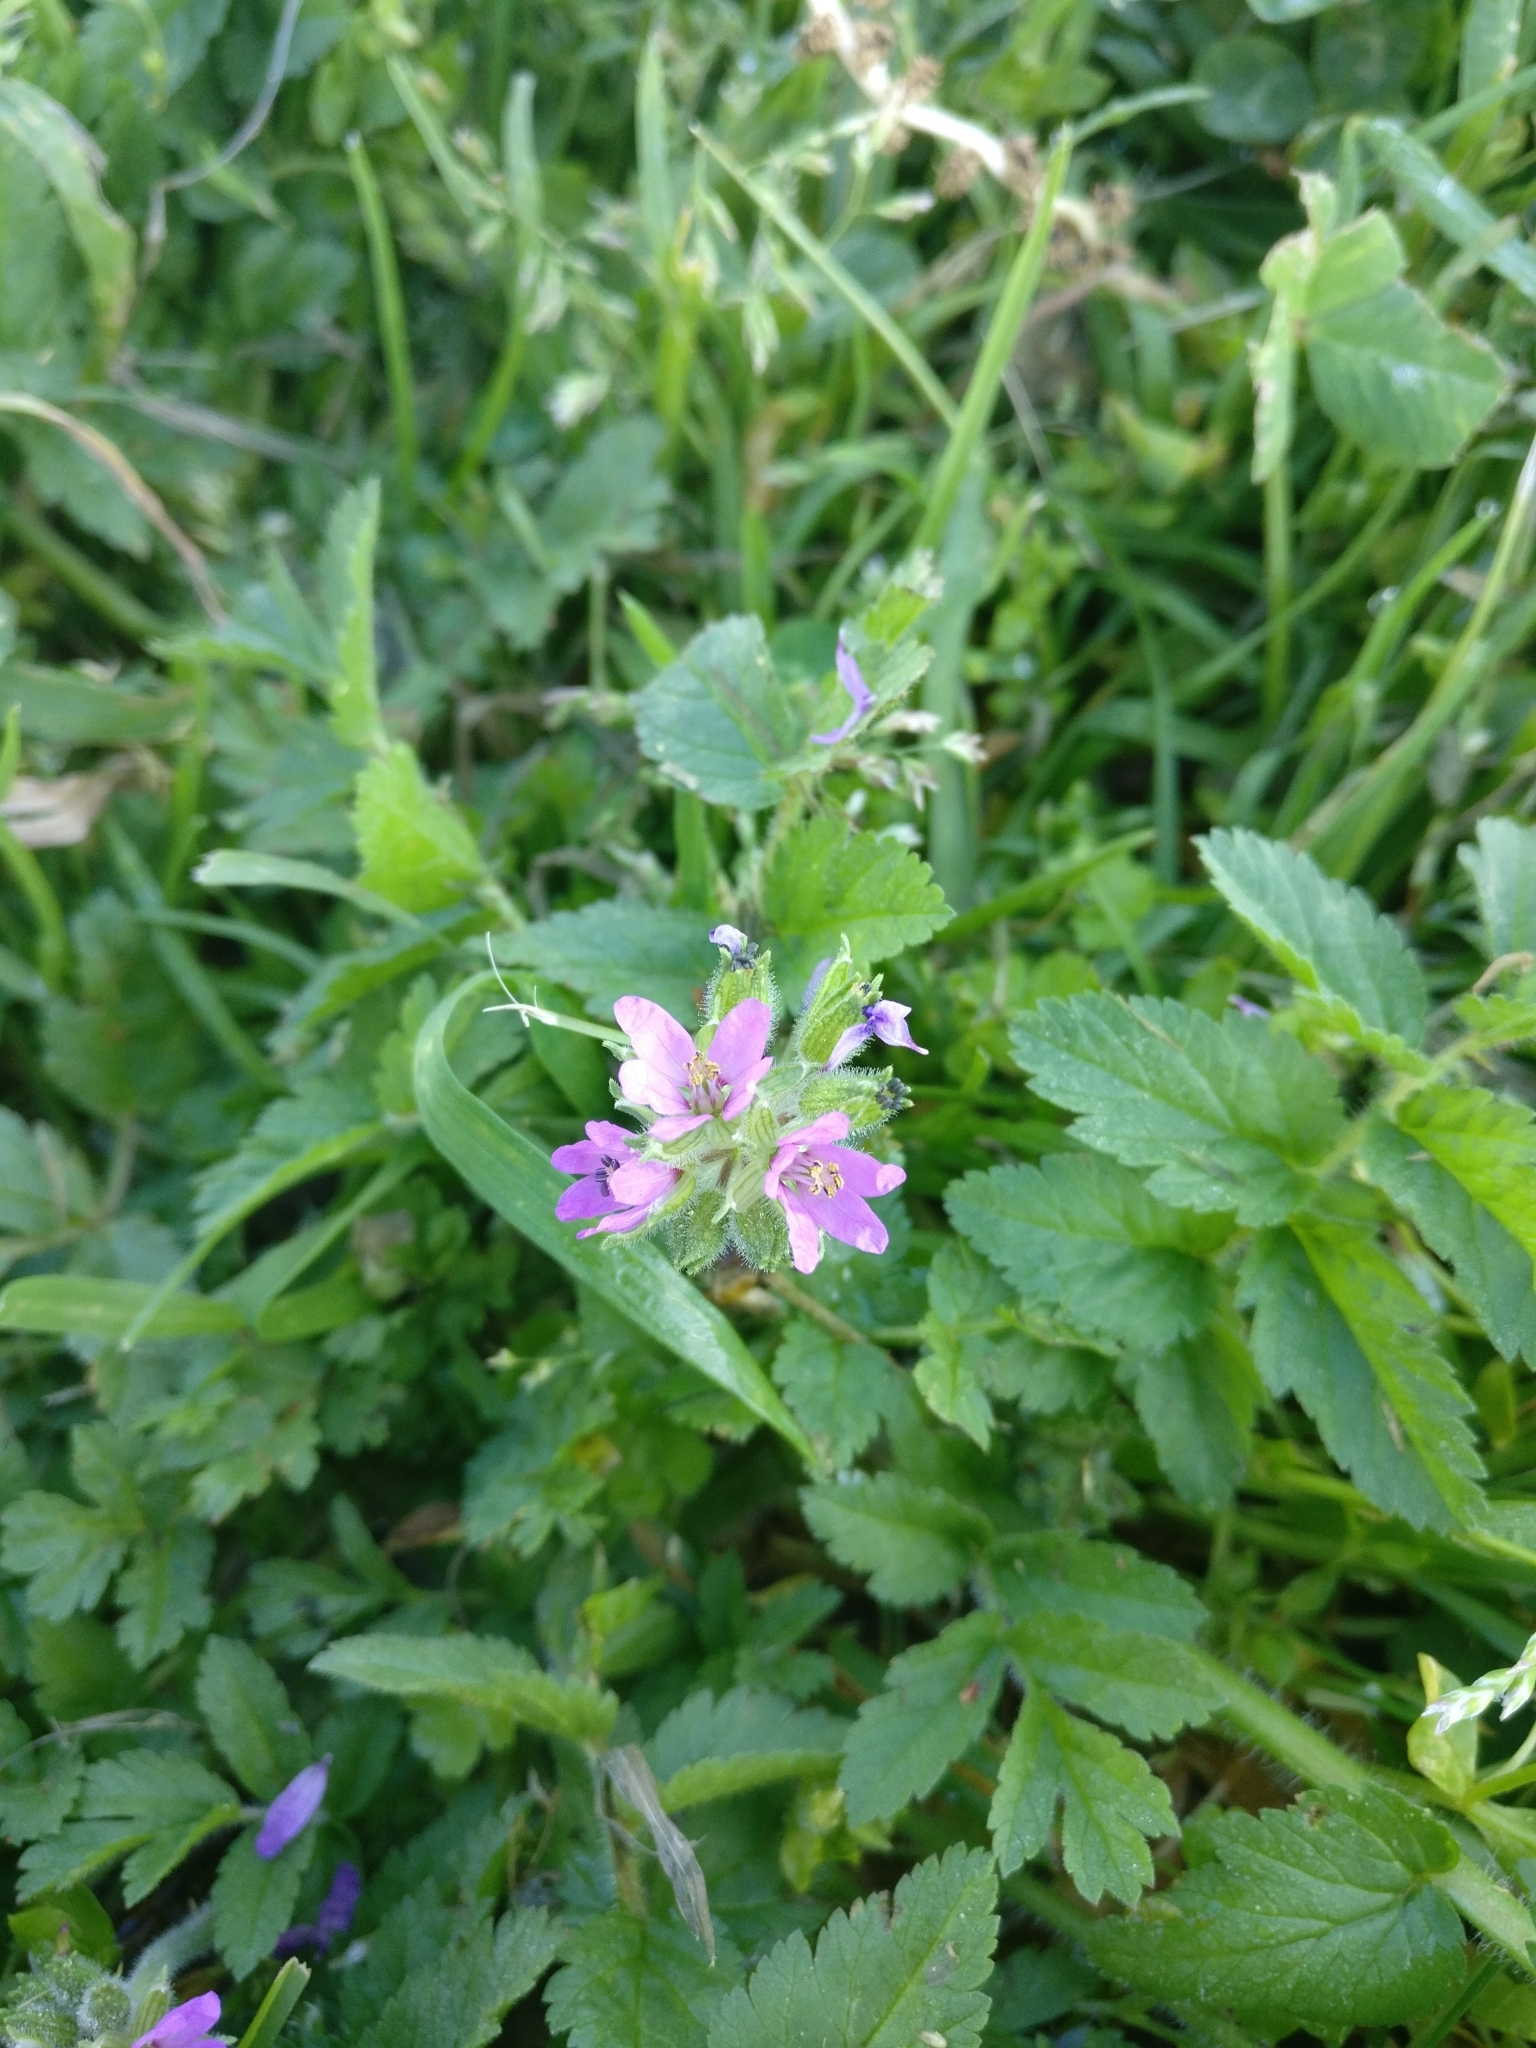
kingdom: Plantae
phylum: Tracheophyta
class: Magnoliopsida
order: Geraniales
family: Geraniaceae
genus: Erodium
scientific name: Erodium moschatum
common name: Musk stork's-bill
